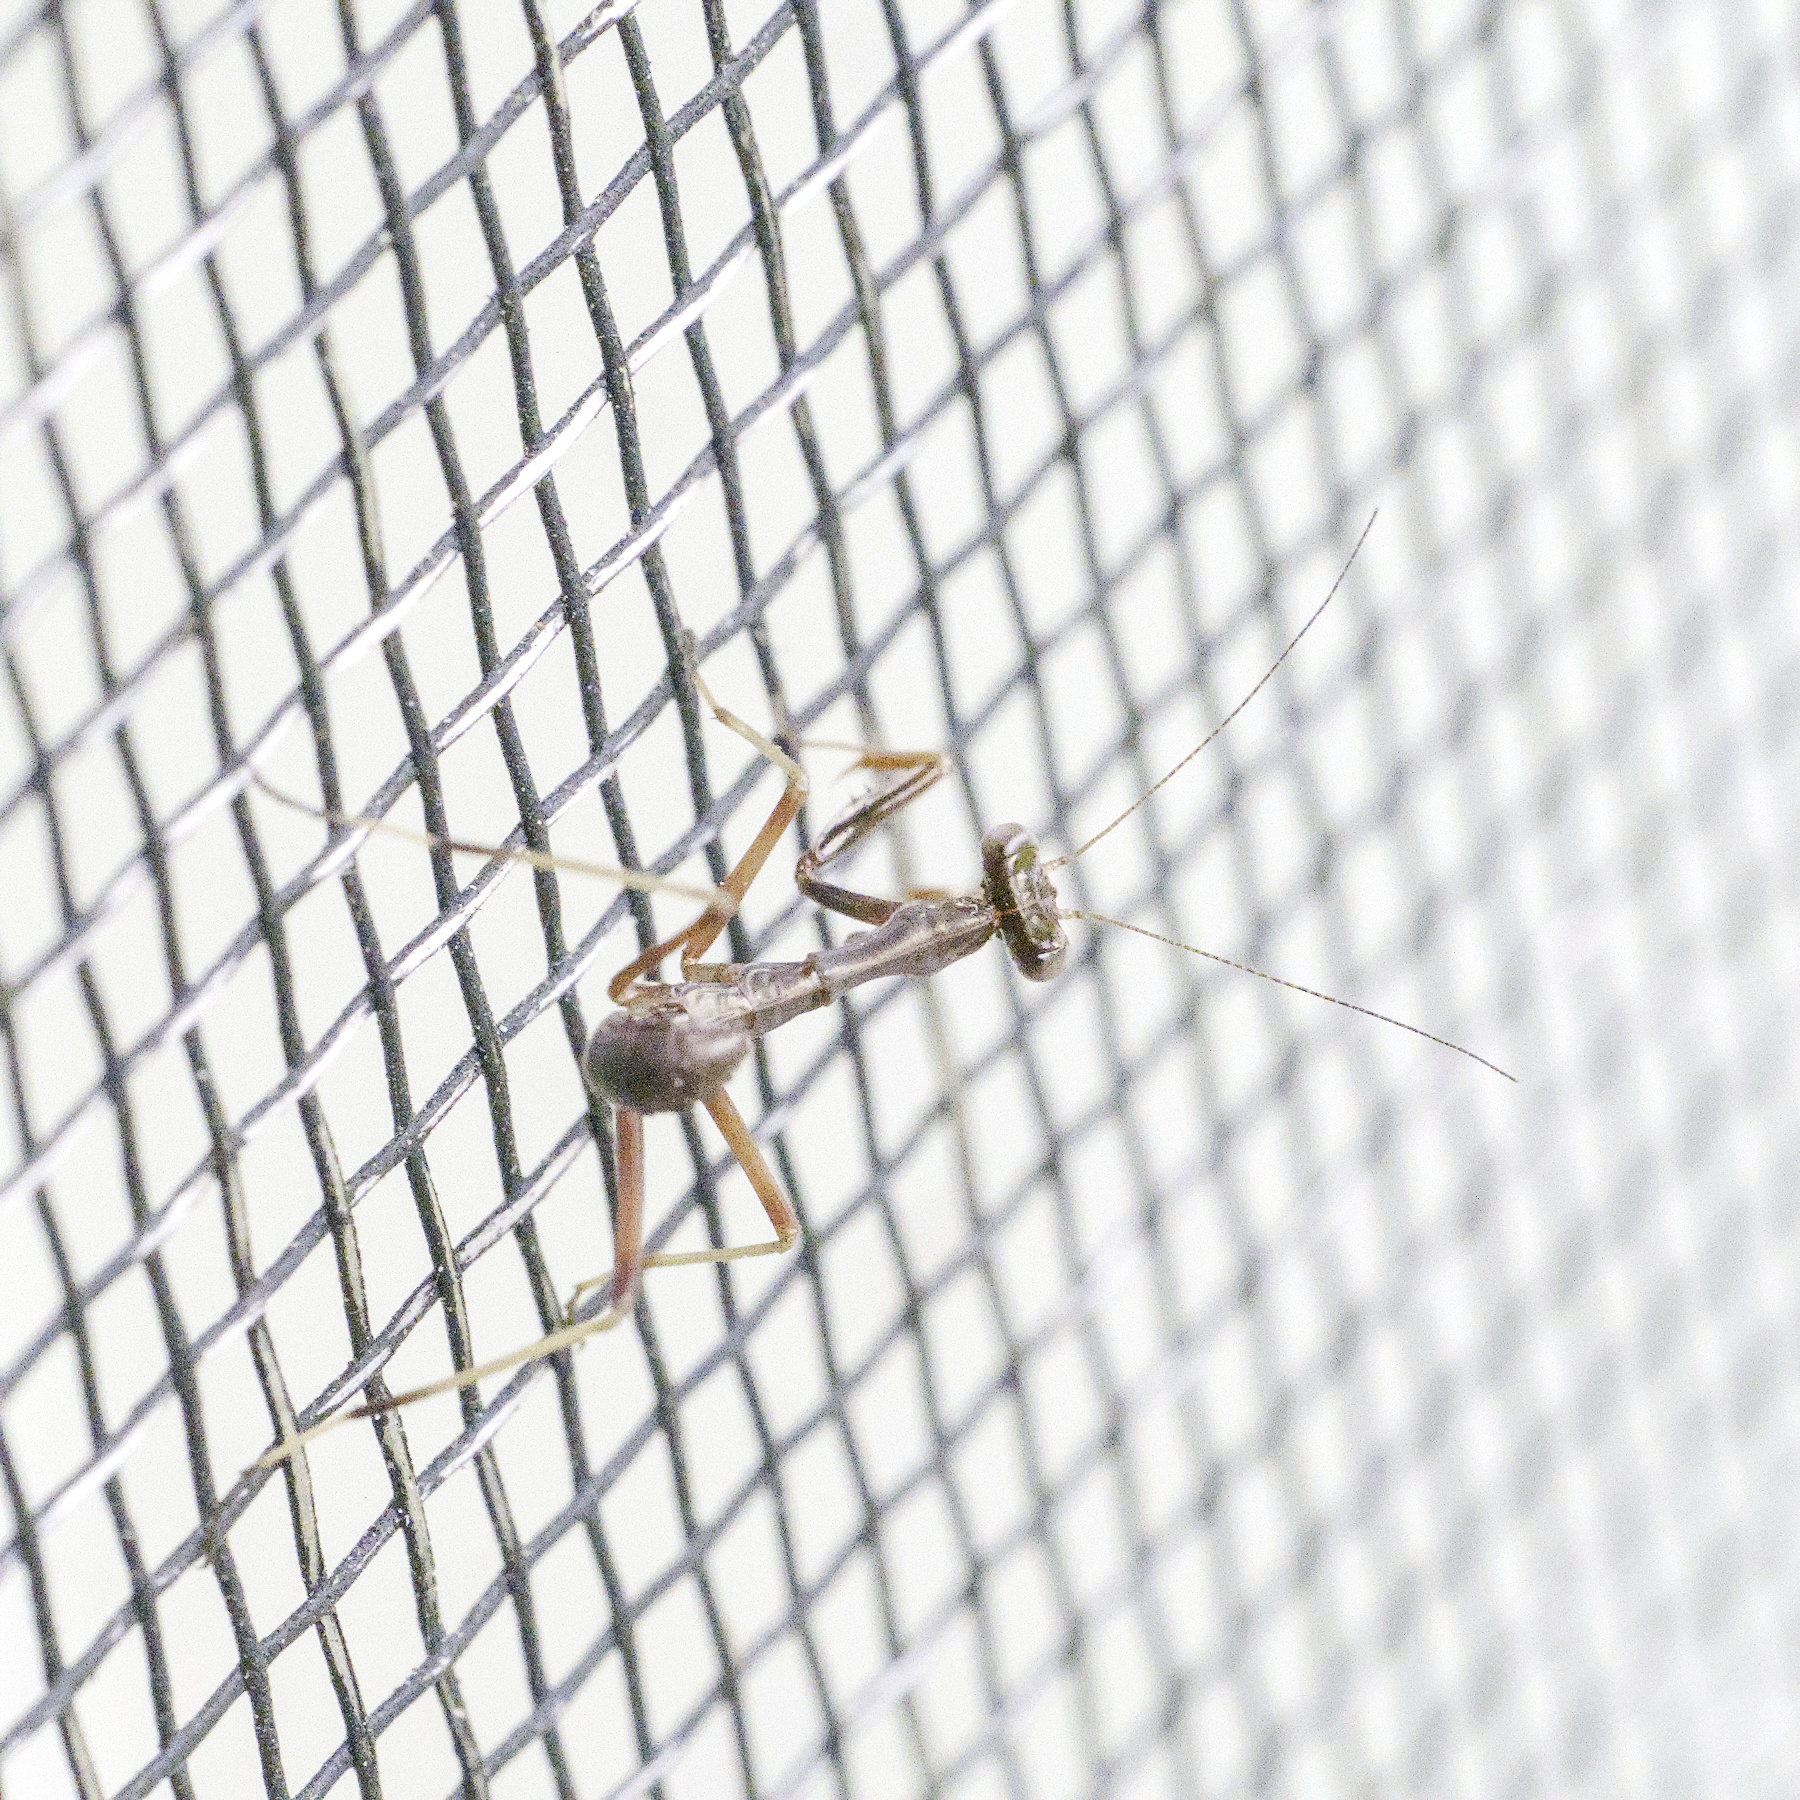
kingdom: Animalia
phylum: Arthropoda
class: Insecta
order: Mantodea
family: Mantidae
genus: Pseudomantis
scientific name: Pseudomantis albofimbriata
